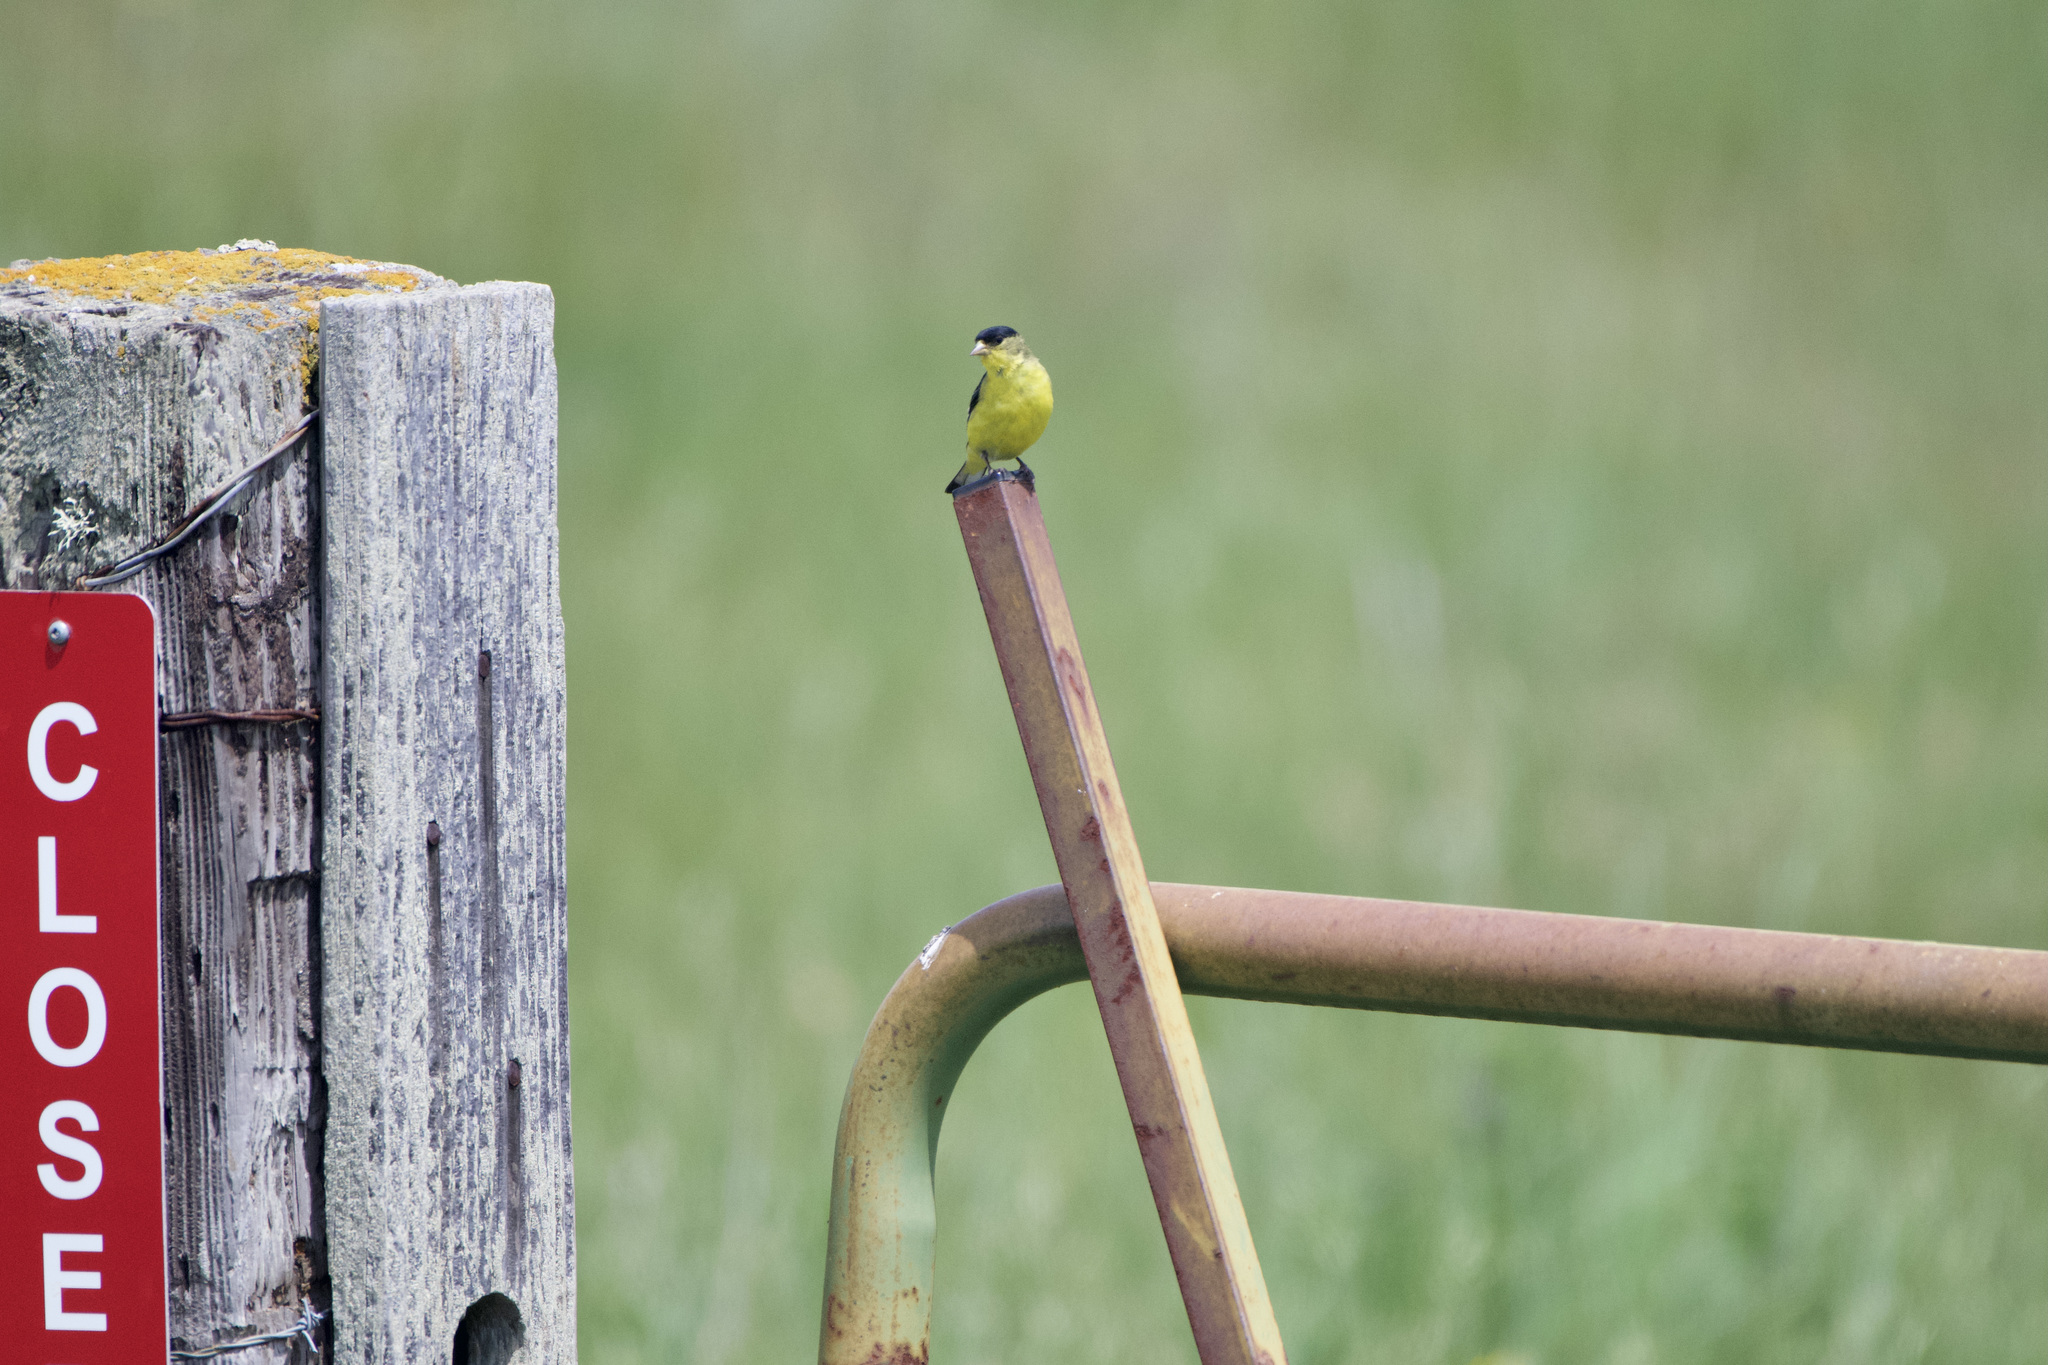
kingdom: Animalia
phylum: Chordata
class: Aves
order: Passeriformes
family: Fringillidae
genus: Spinus
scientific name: Spinus psaltria
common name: Lesser goldfinch
